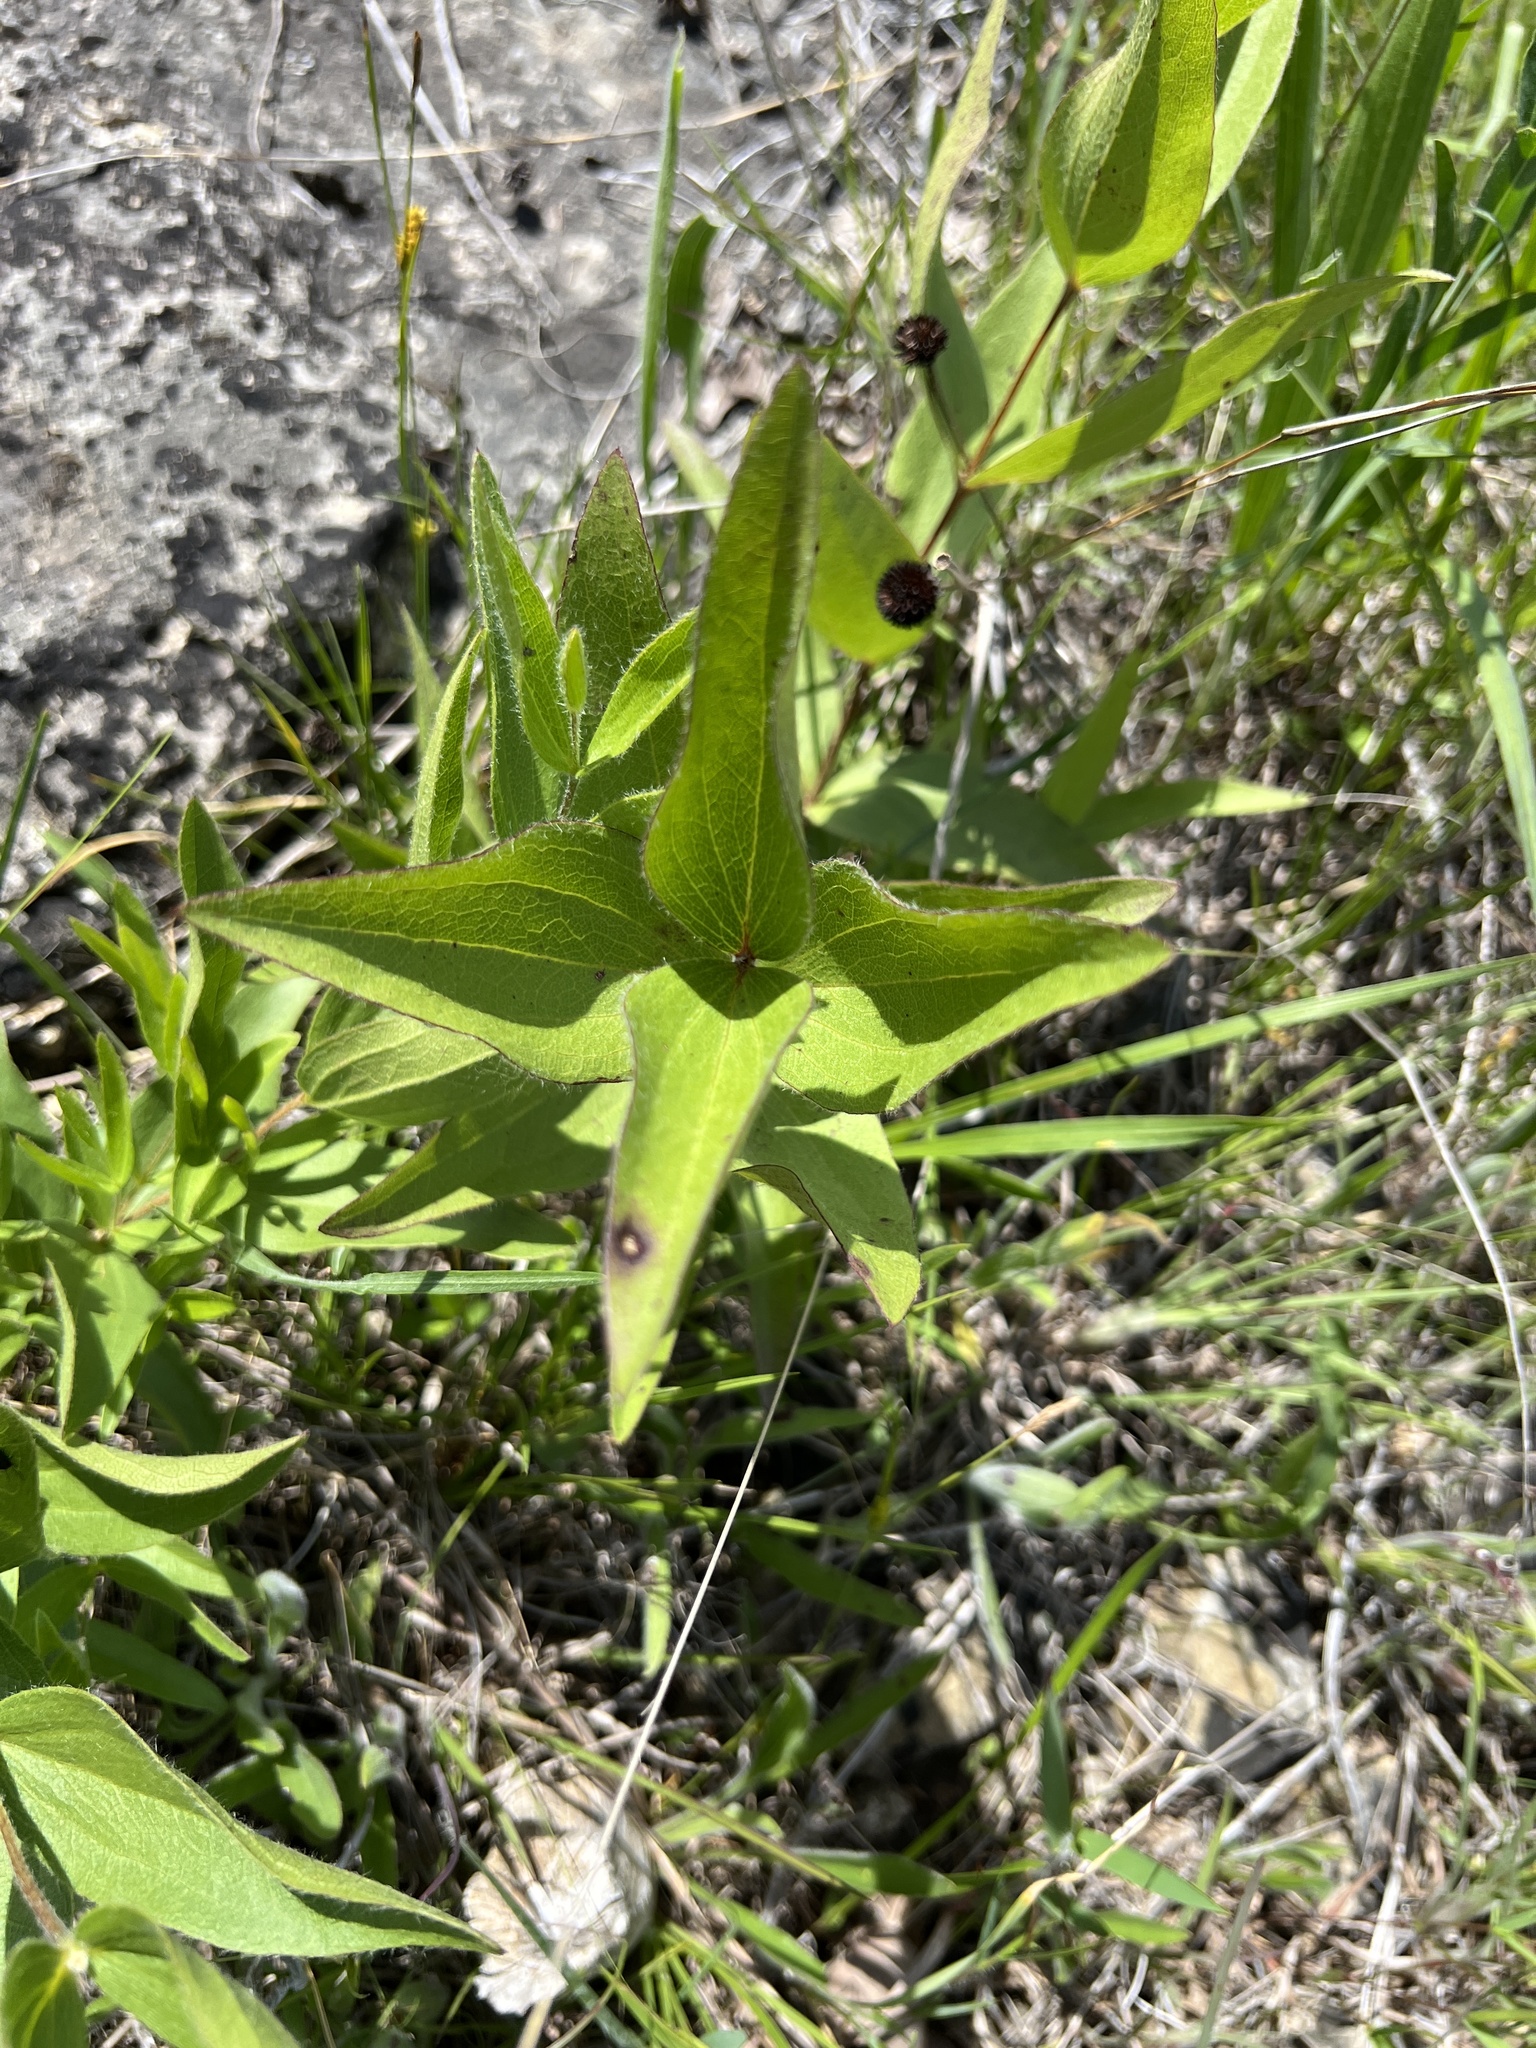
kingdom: Plantae
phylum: Tracheophyta
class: Magnoliopsida
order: Ranunculales
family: Ranunculaceae
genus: Clematis
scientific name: Clematis fremontii
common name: Fremont's clematis
